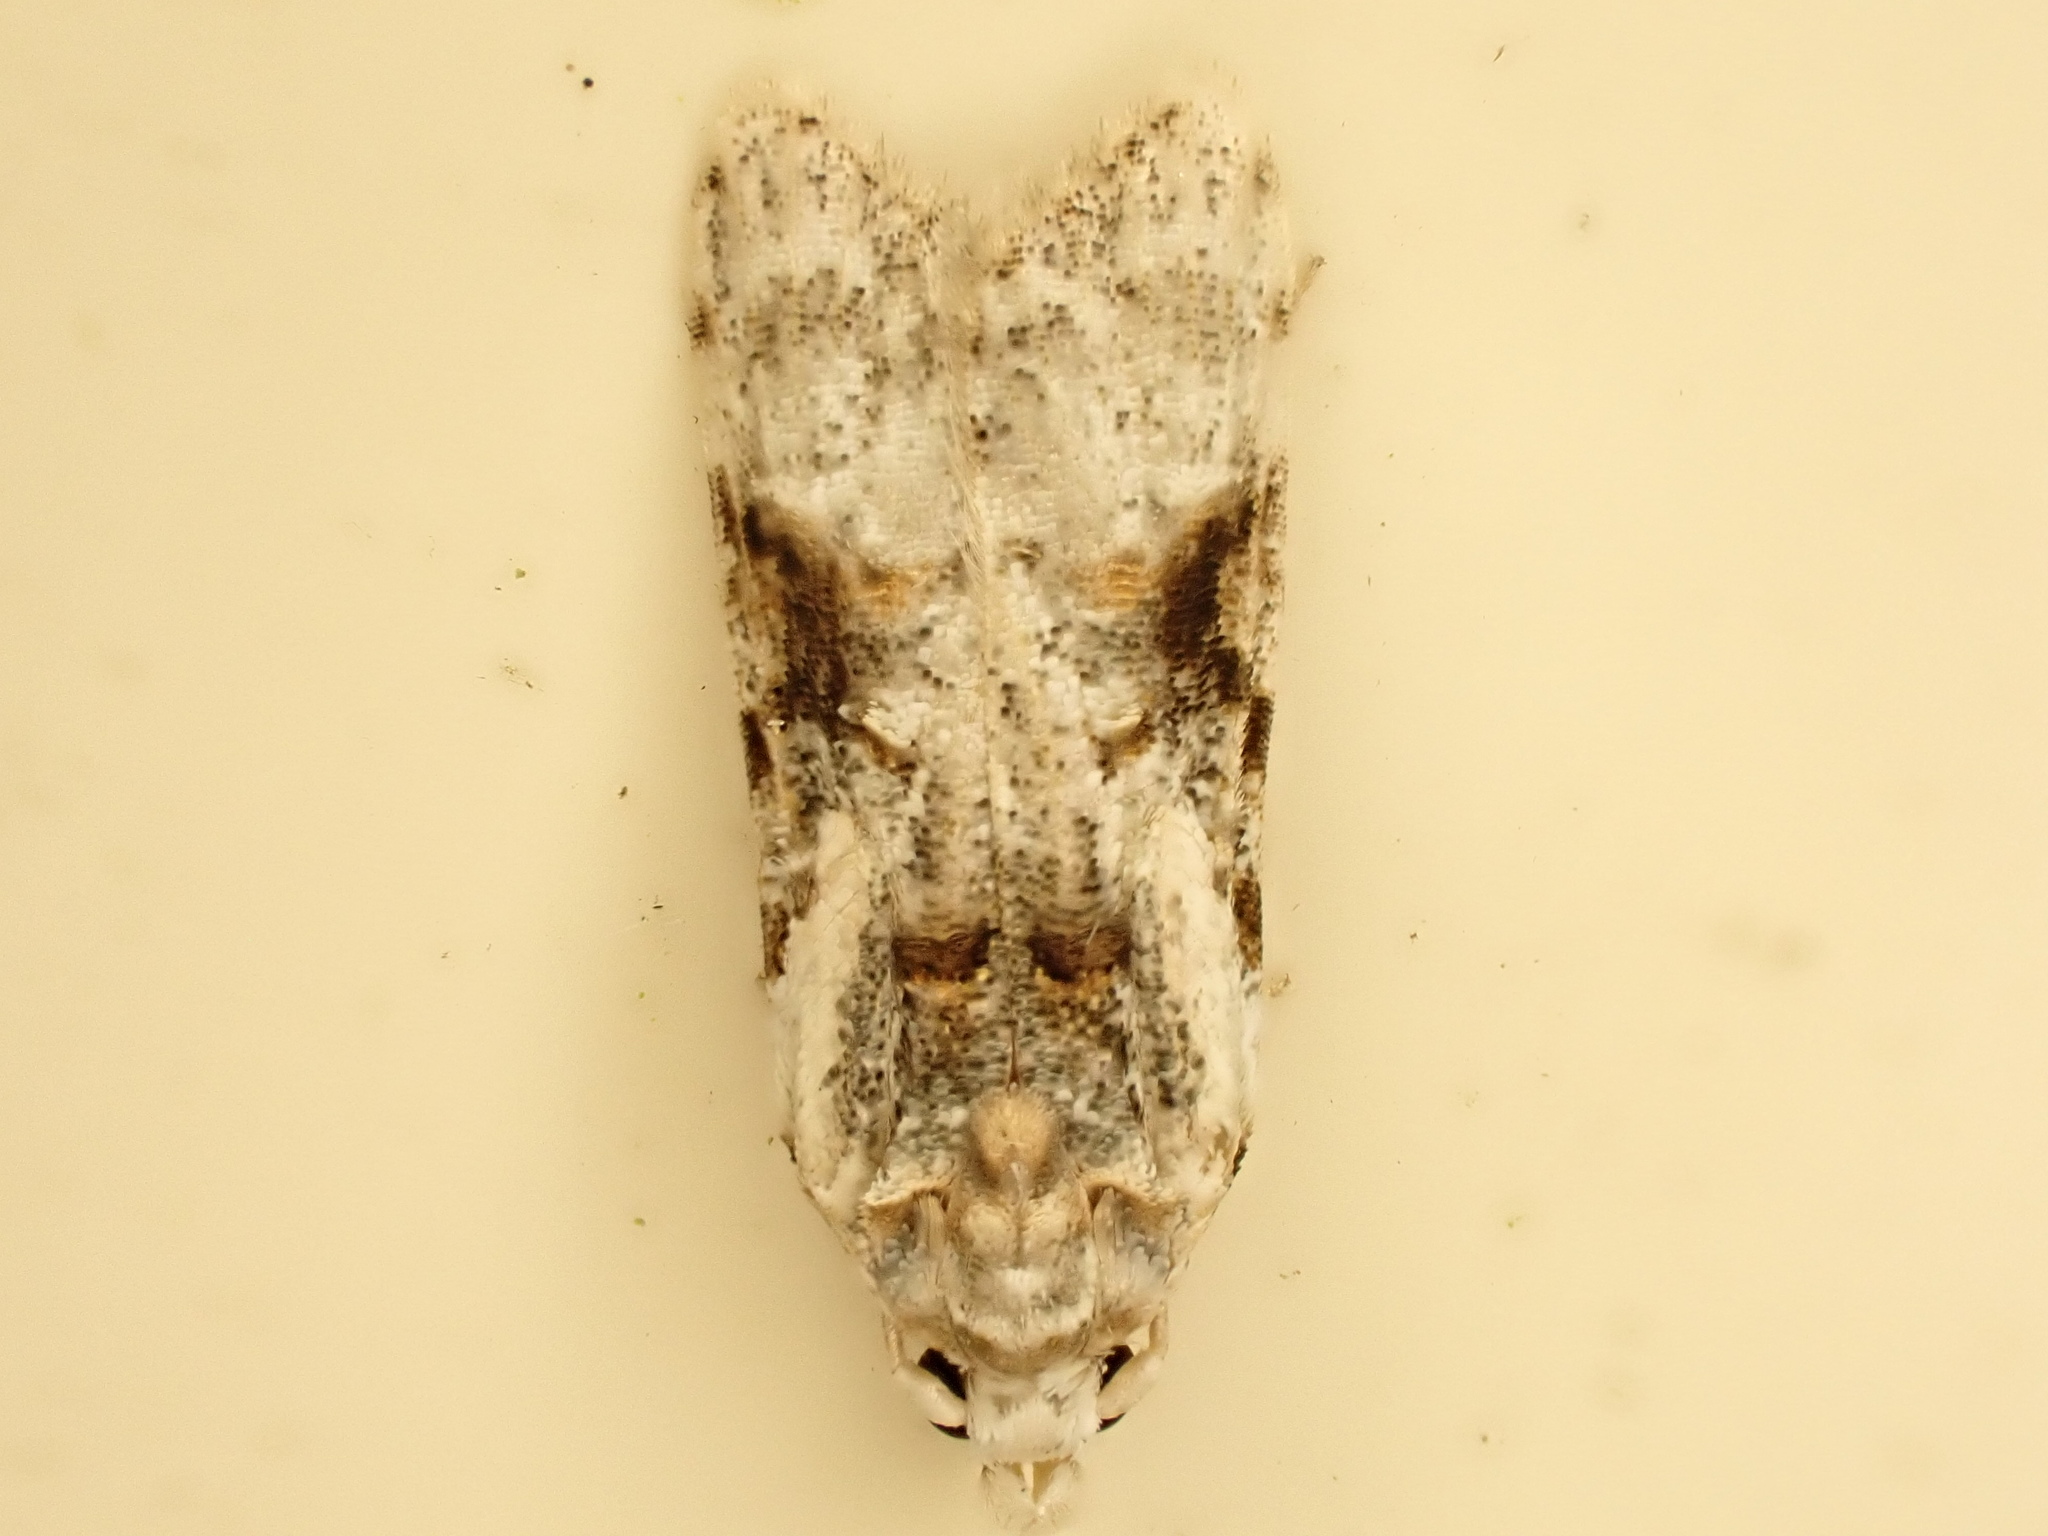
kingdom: Animalia
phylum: Arthropoda
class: Insecta
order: Lepidoptera
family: Carposinidae
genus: Coscinoptycha
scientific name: Coscinoptycha improbana
